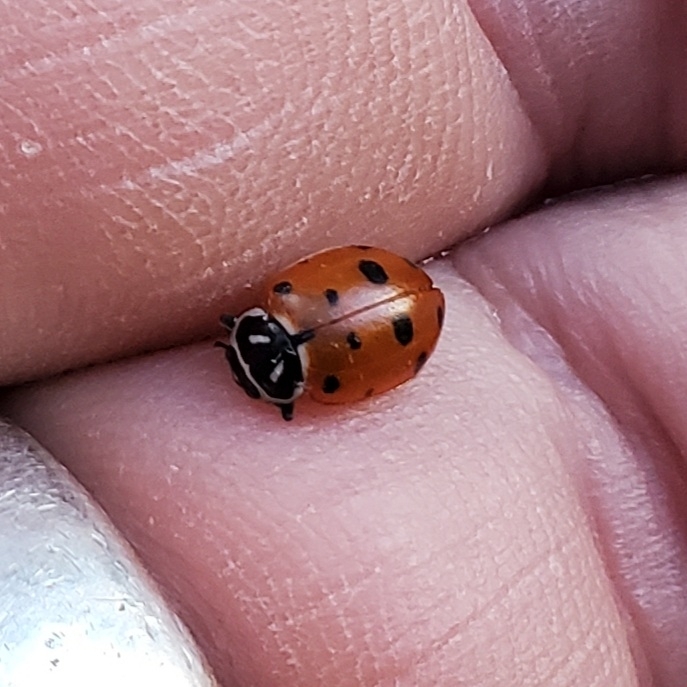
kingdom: Animalia
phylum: Arthropoda
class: Insecta
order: Coleoptera
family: Coccinellidae
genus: Hippodamia
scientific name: Hippodamia convergens
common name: Convergent lady beetle
